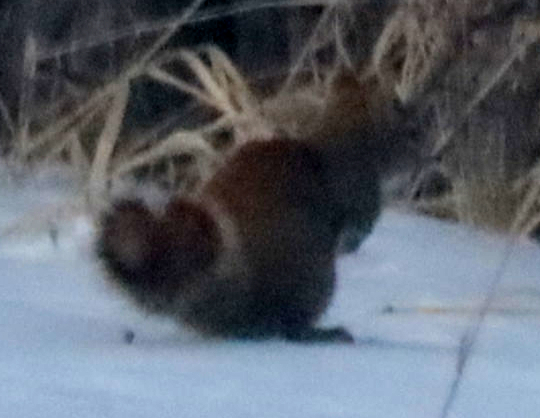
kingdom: Animalia
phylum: Chordata
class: Mammalia
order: Rodentia
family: Sciuridae
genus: Tamiasciurus
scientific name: Tamiasciurus hudsonicus
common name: Red squirrel
